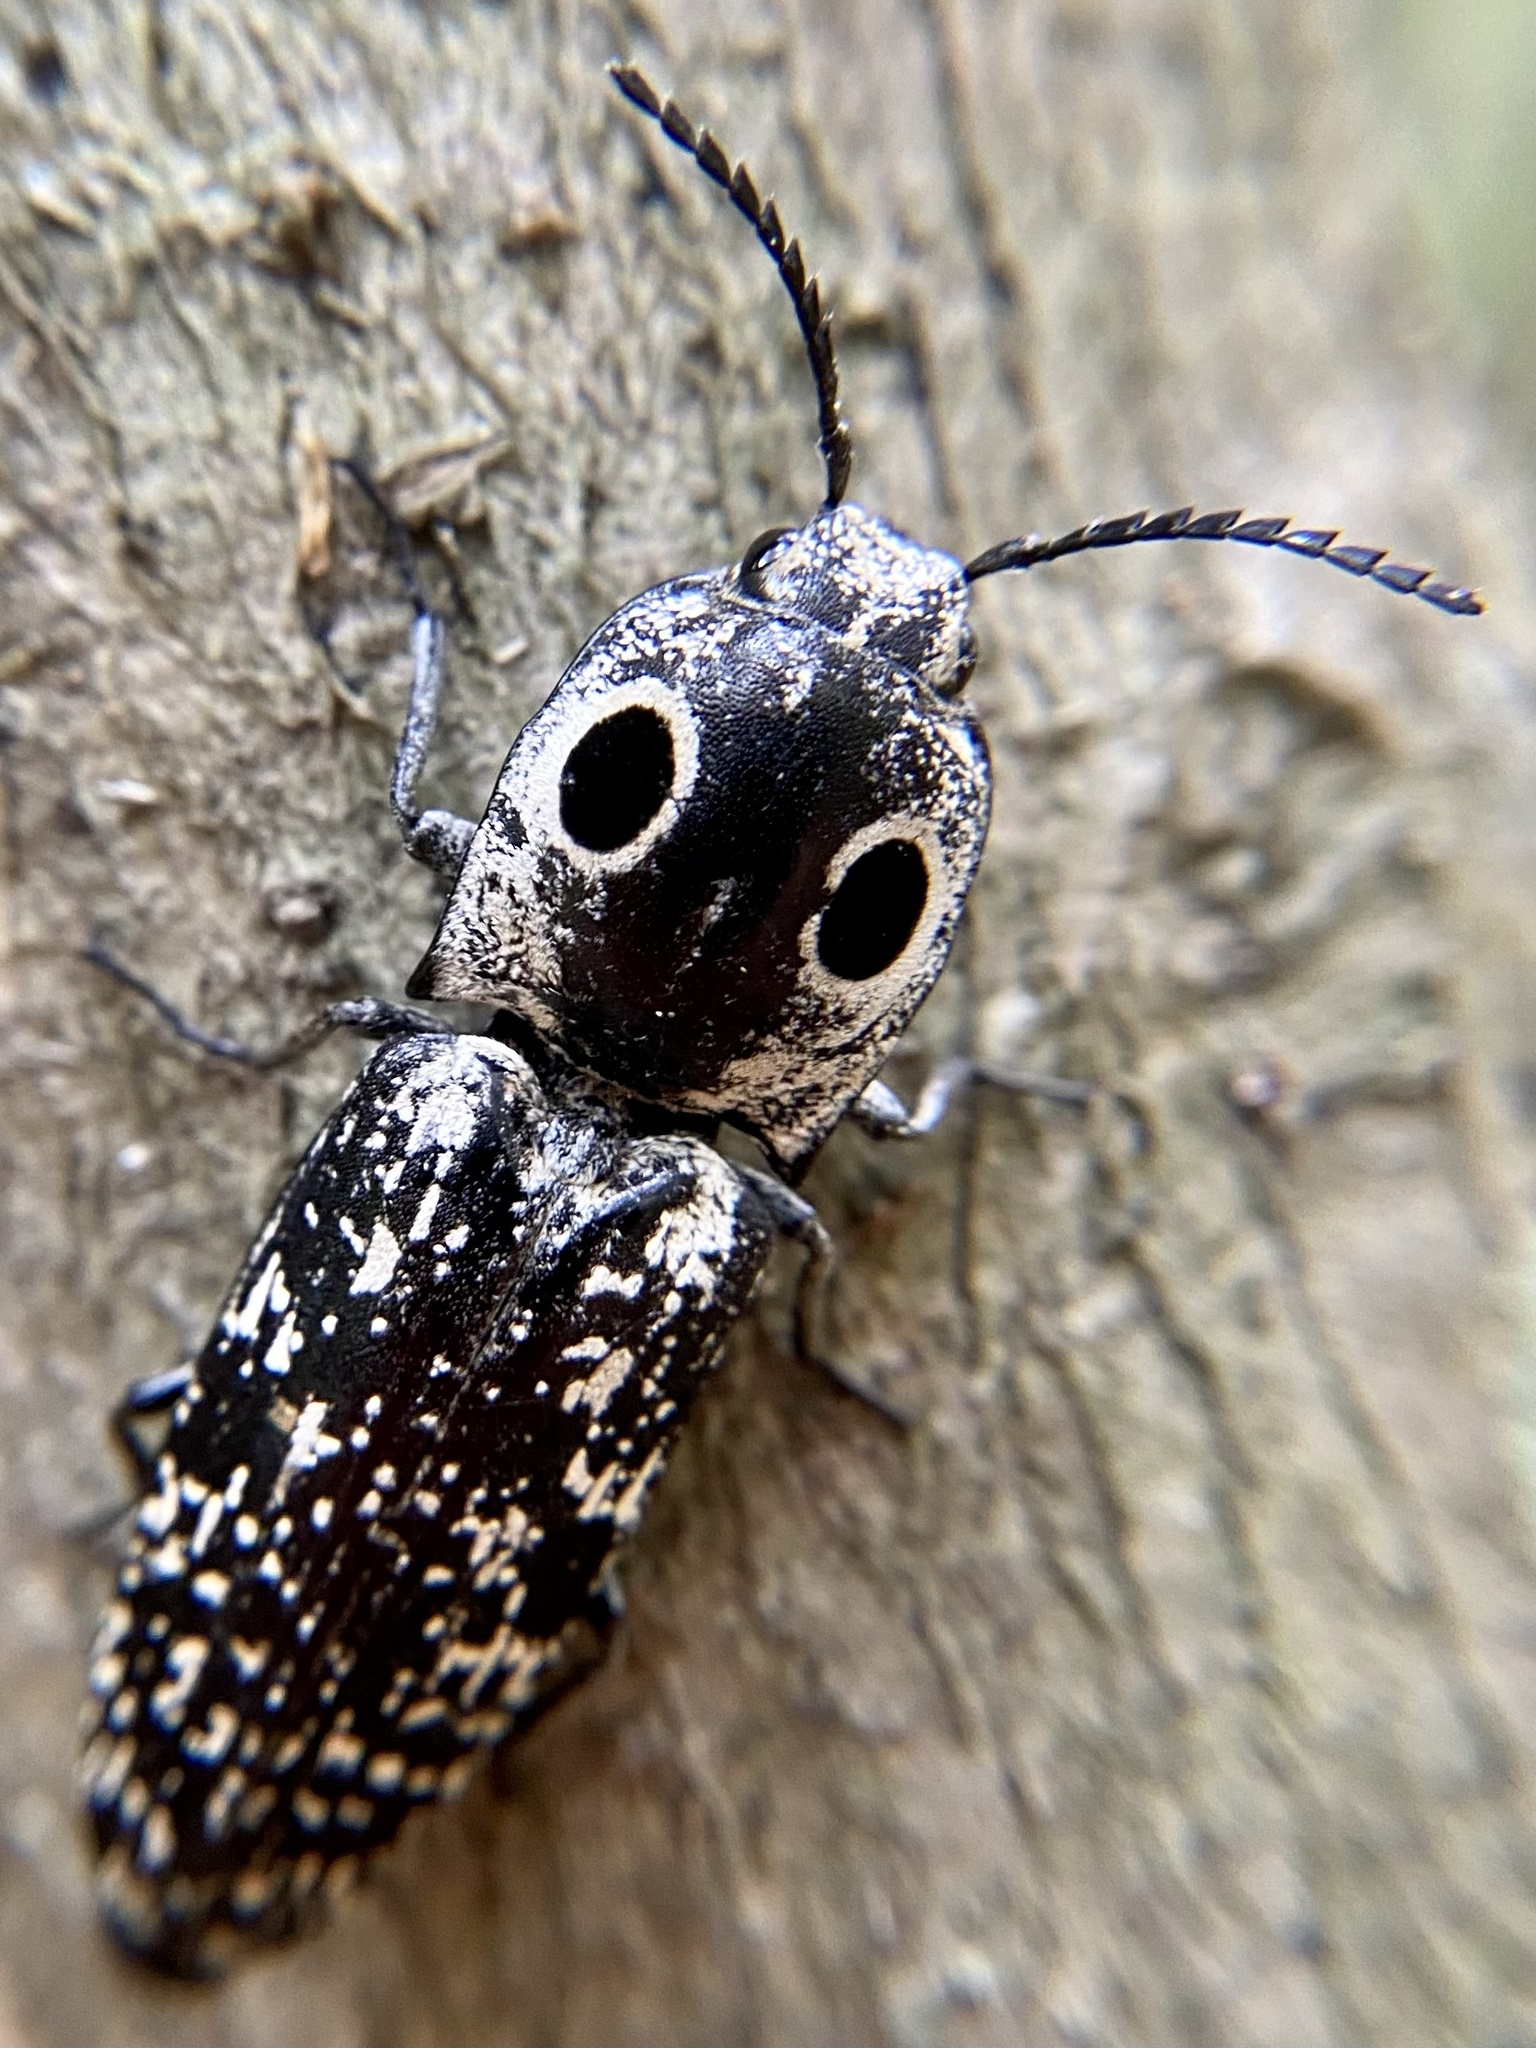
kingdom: Animalia
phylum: Arthropoda
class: Insecta
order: Coleoptera
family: Elateridae
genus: Alaus
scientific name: Alaus
